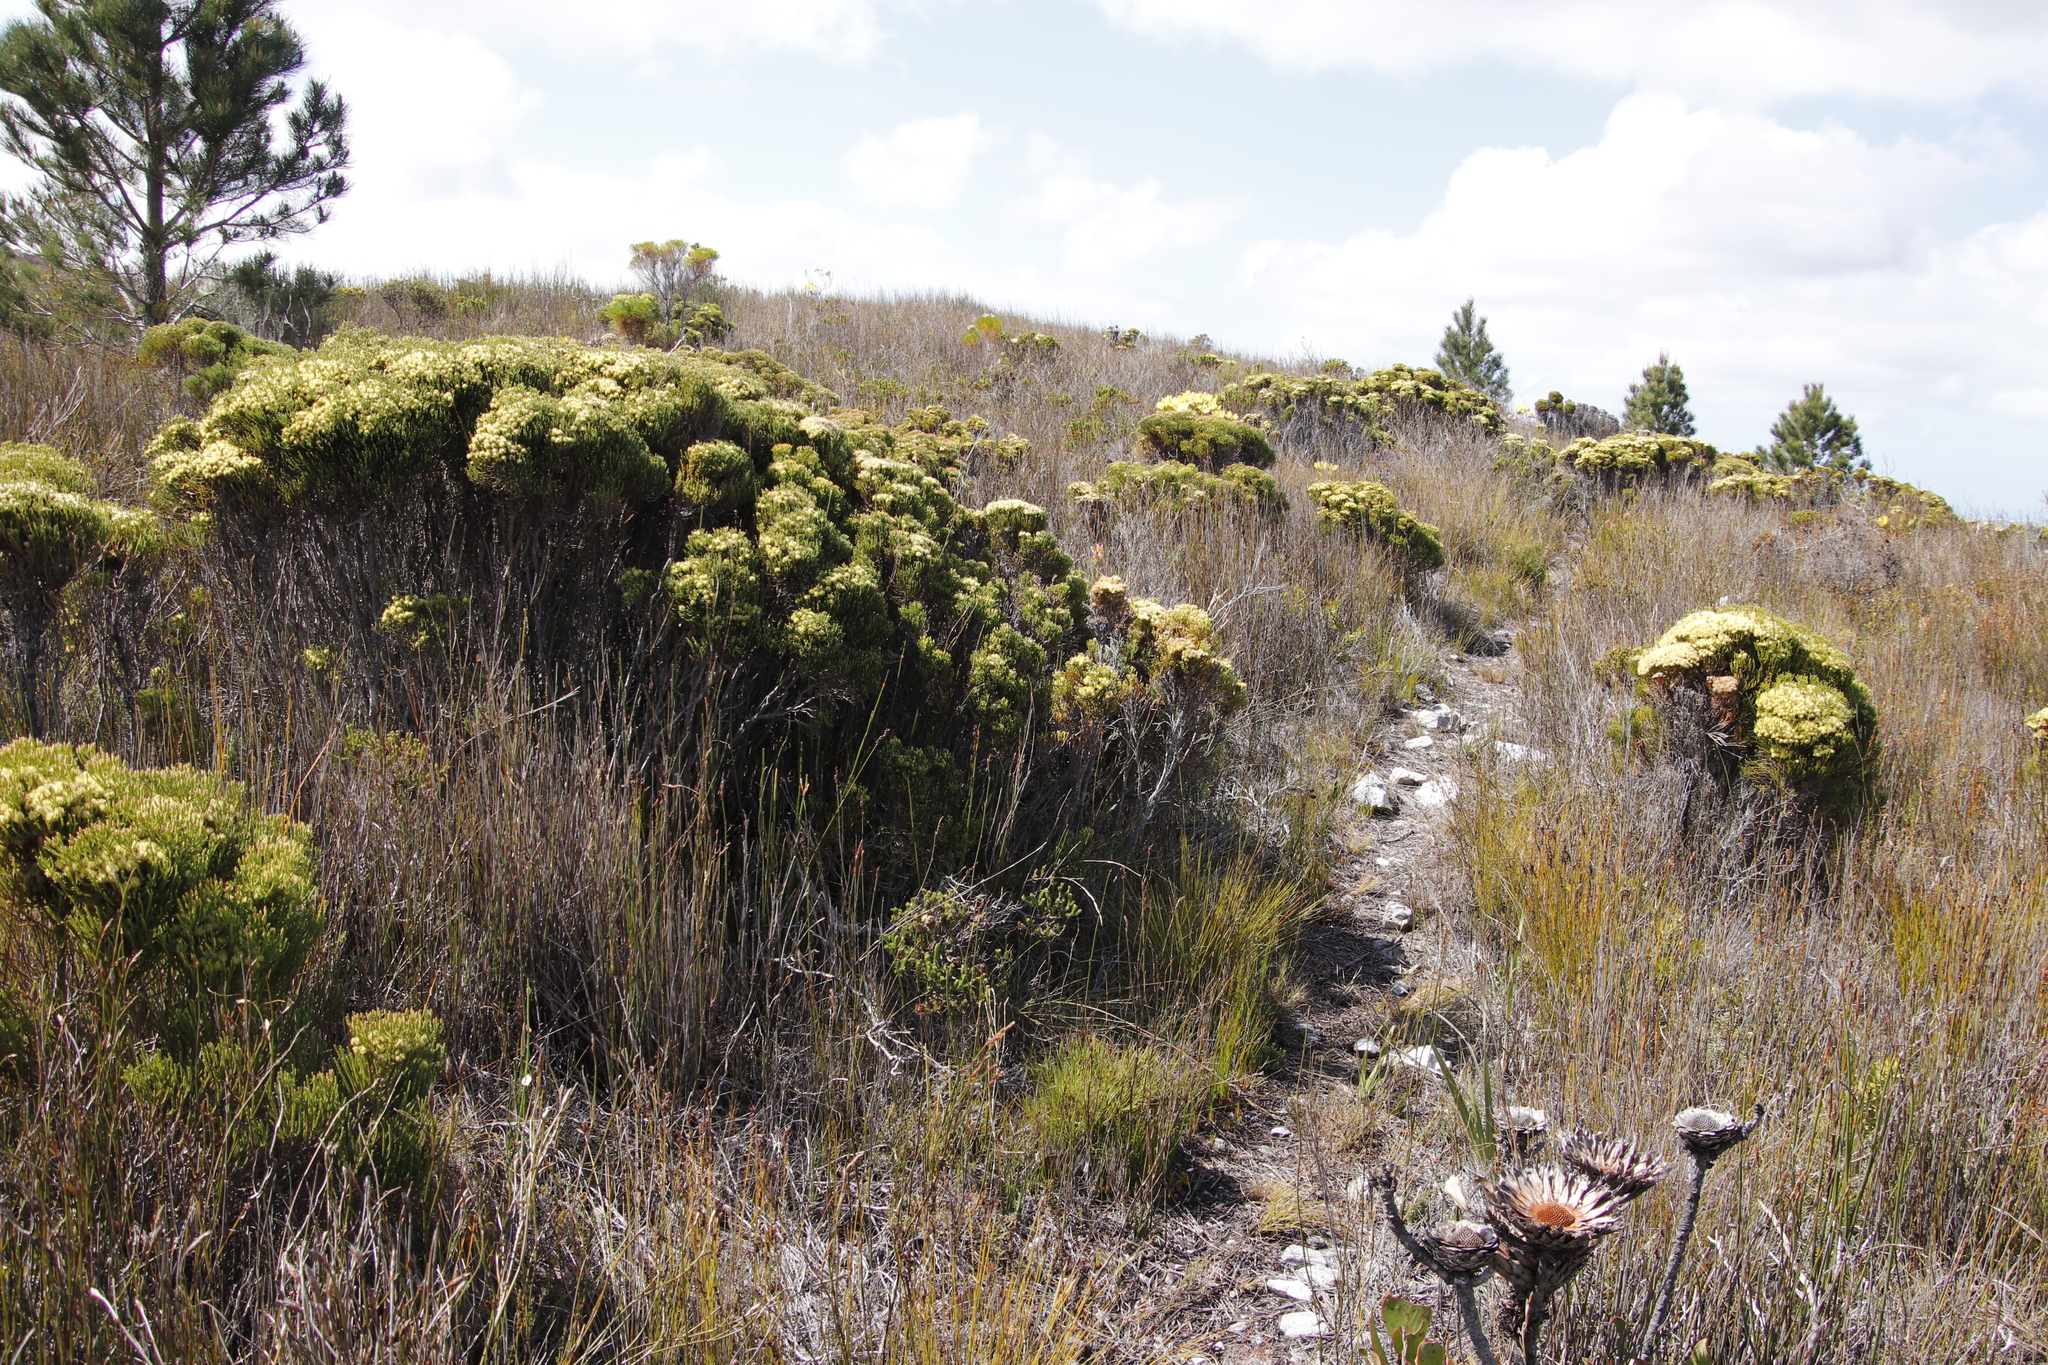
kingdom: Plantae
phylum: Tracheophyta
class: Magnoliopsida
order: Bruniales
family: Bruniaceae
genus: Brunia
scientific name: Brunia paleacea
